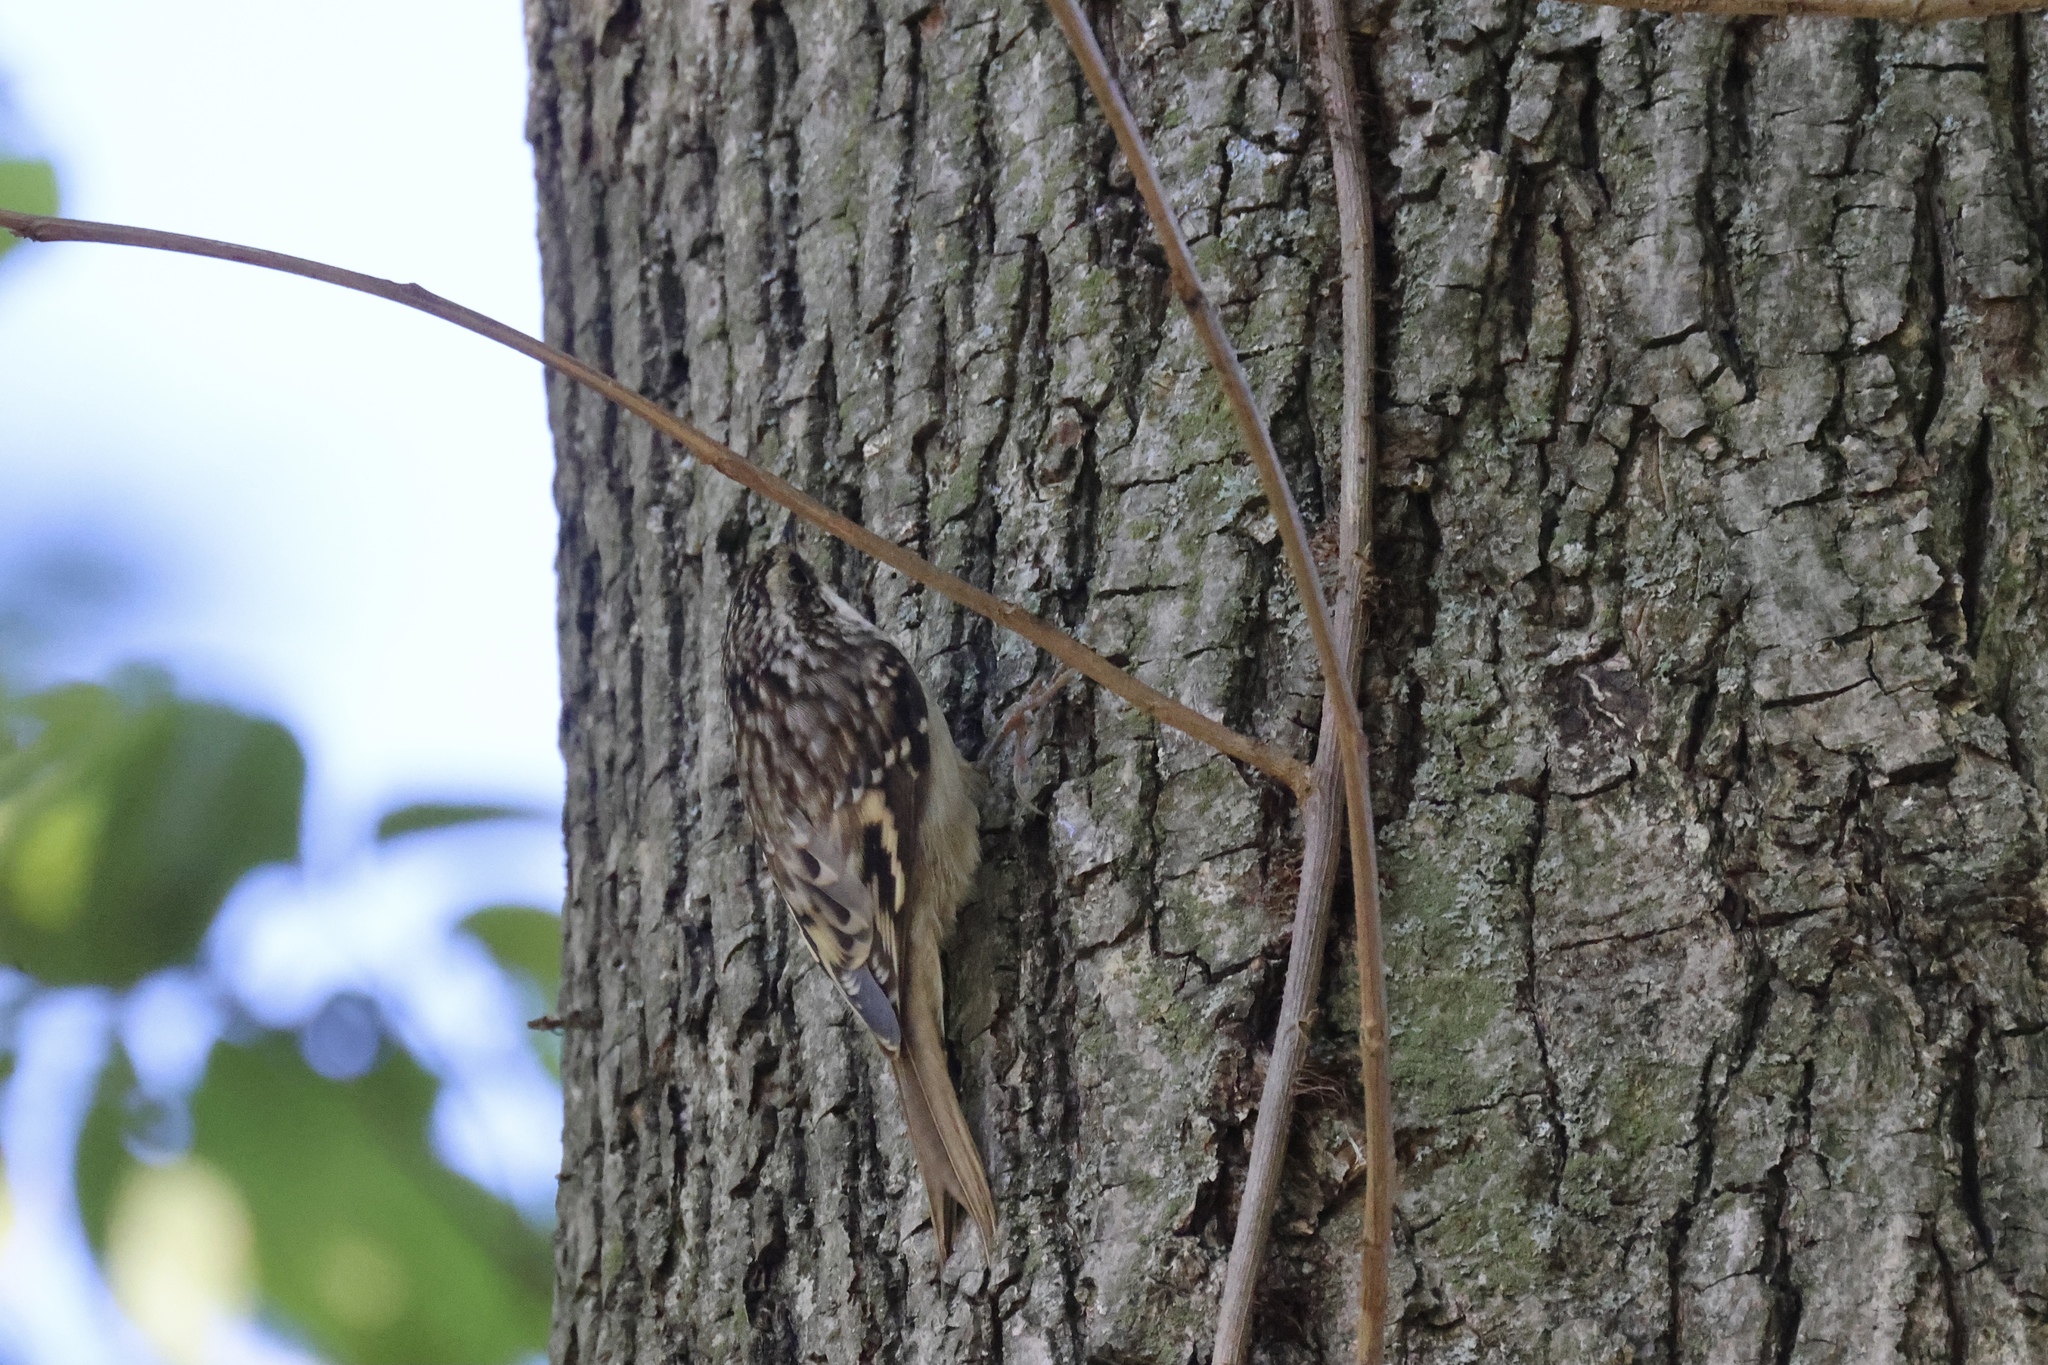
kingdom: Animalia
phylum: Chordata
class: Aves
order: Passeriformes
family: Certhiidae
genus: Certhia
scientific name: Certhia americana
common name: Brown creeper
